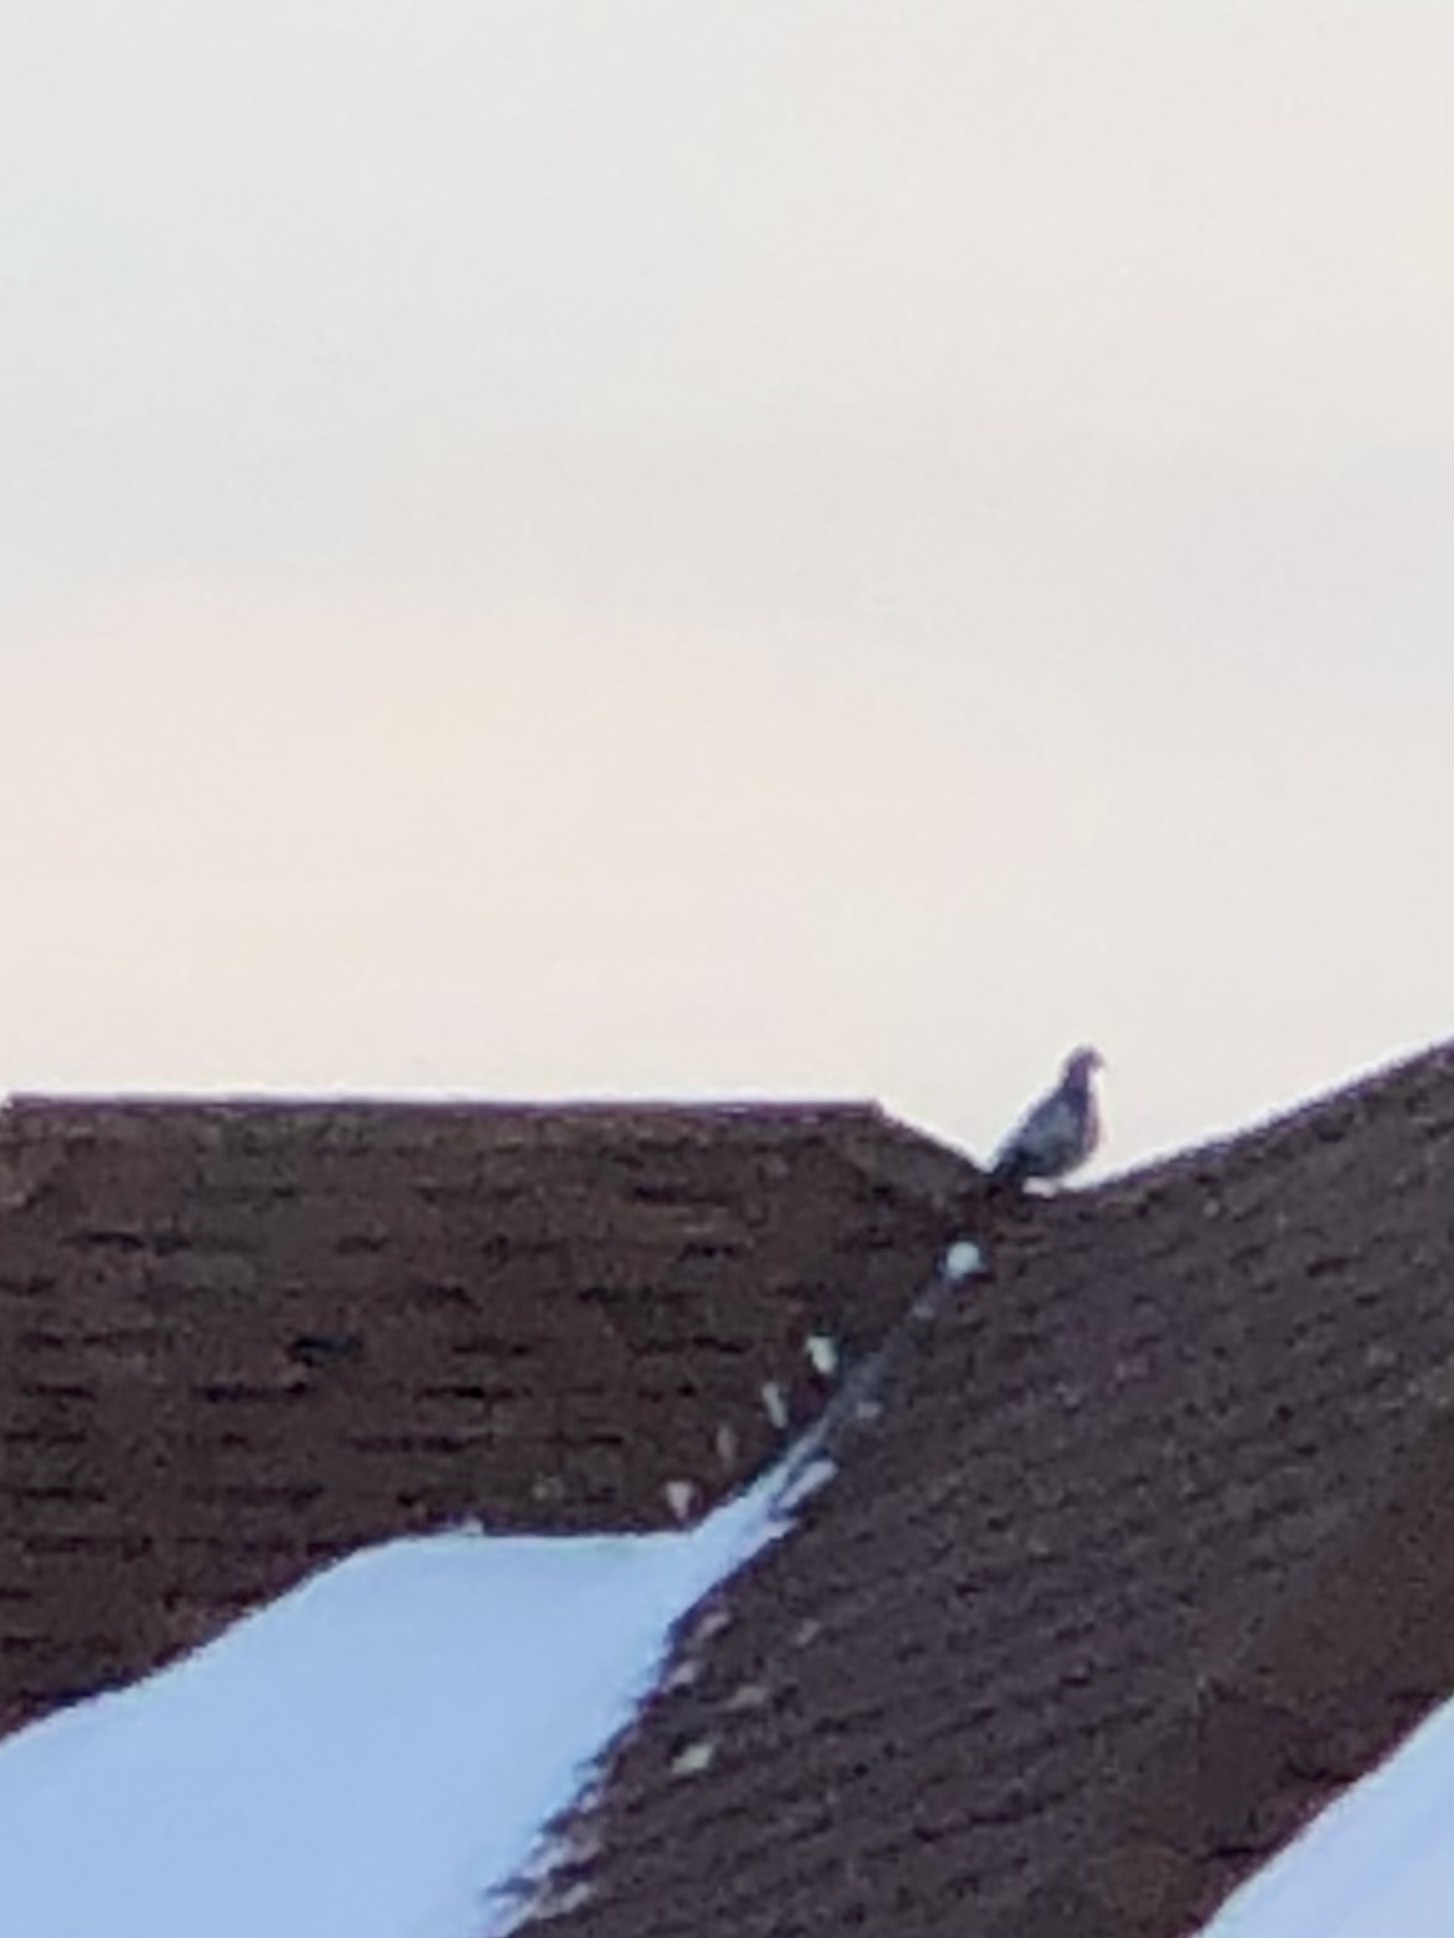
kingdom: Animalia
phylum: Chordata
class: Aves
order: Columbiformes
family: Columbidae
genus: Columba
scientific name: Columba livia
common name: Rock pigeon
